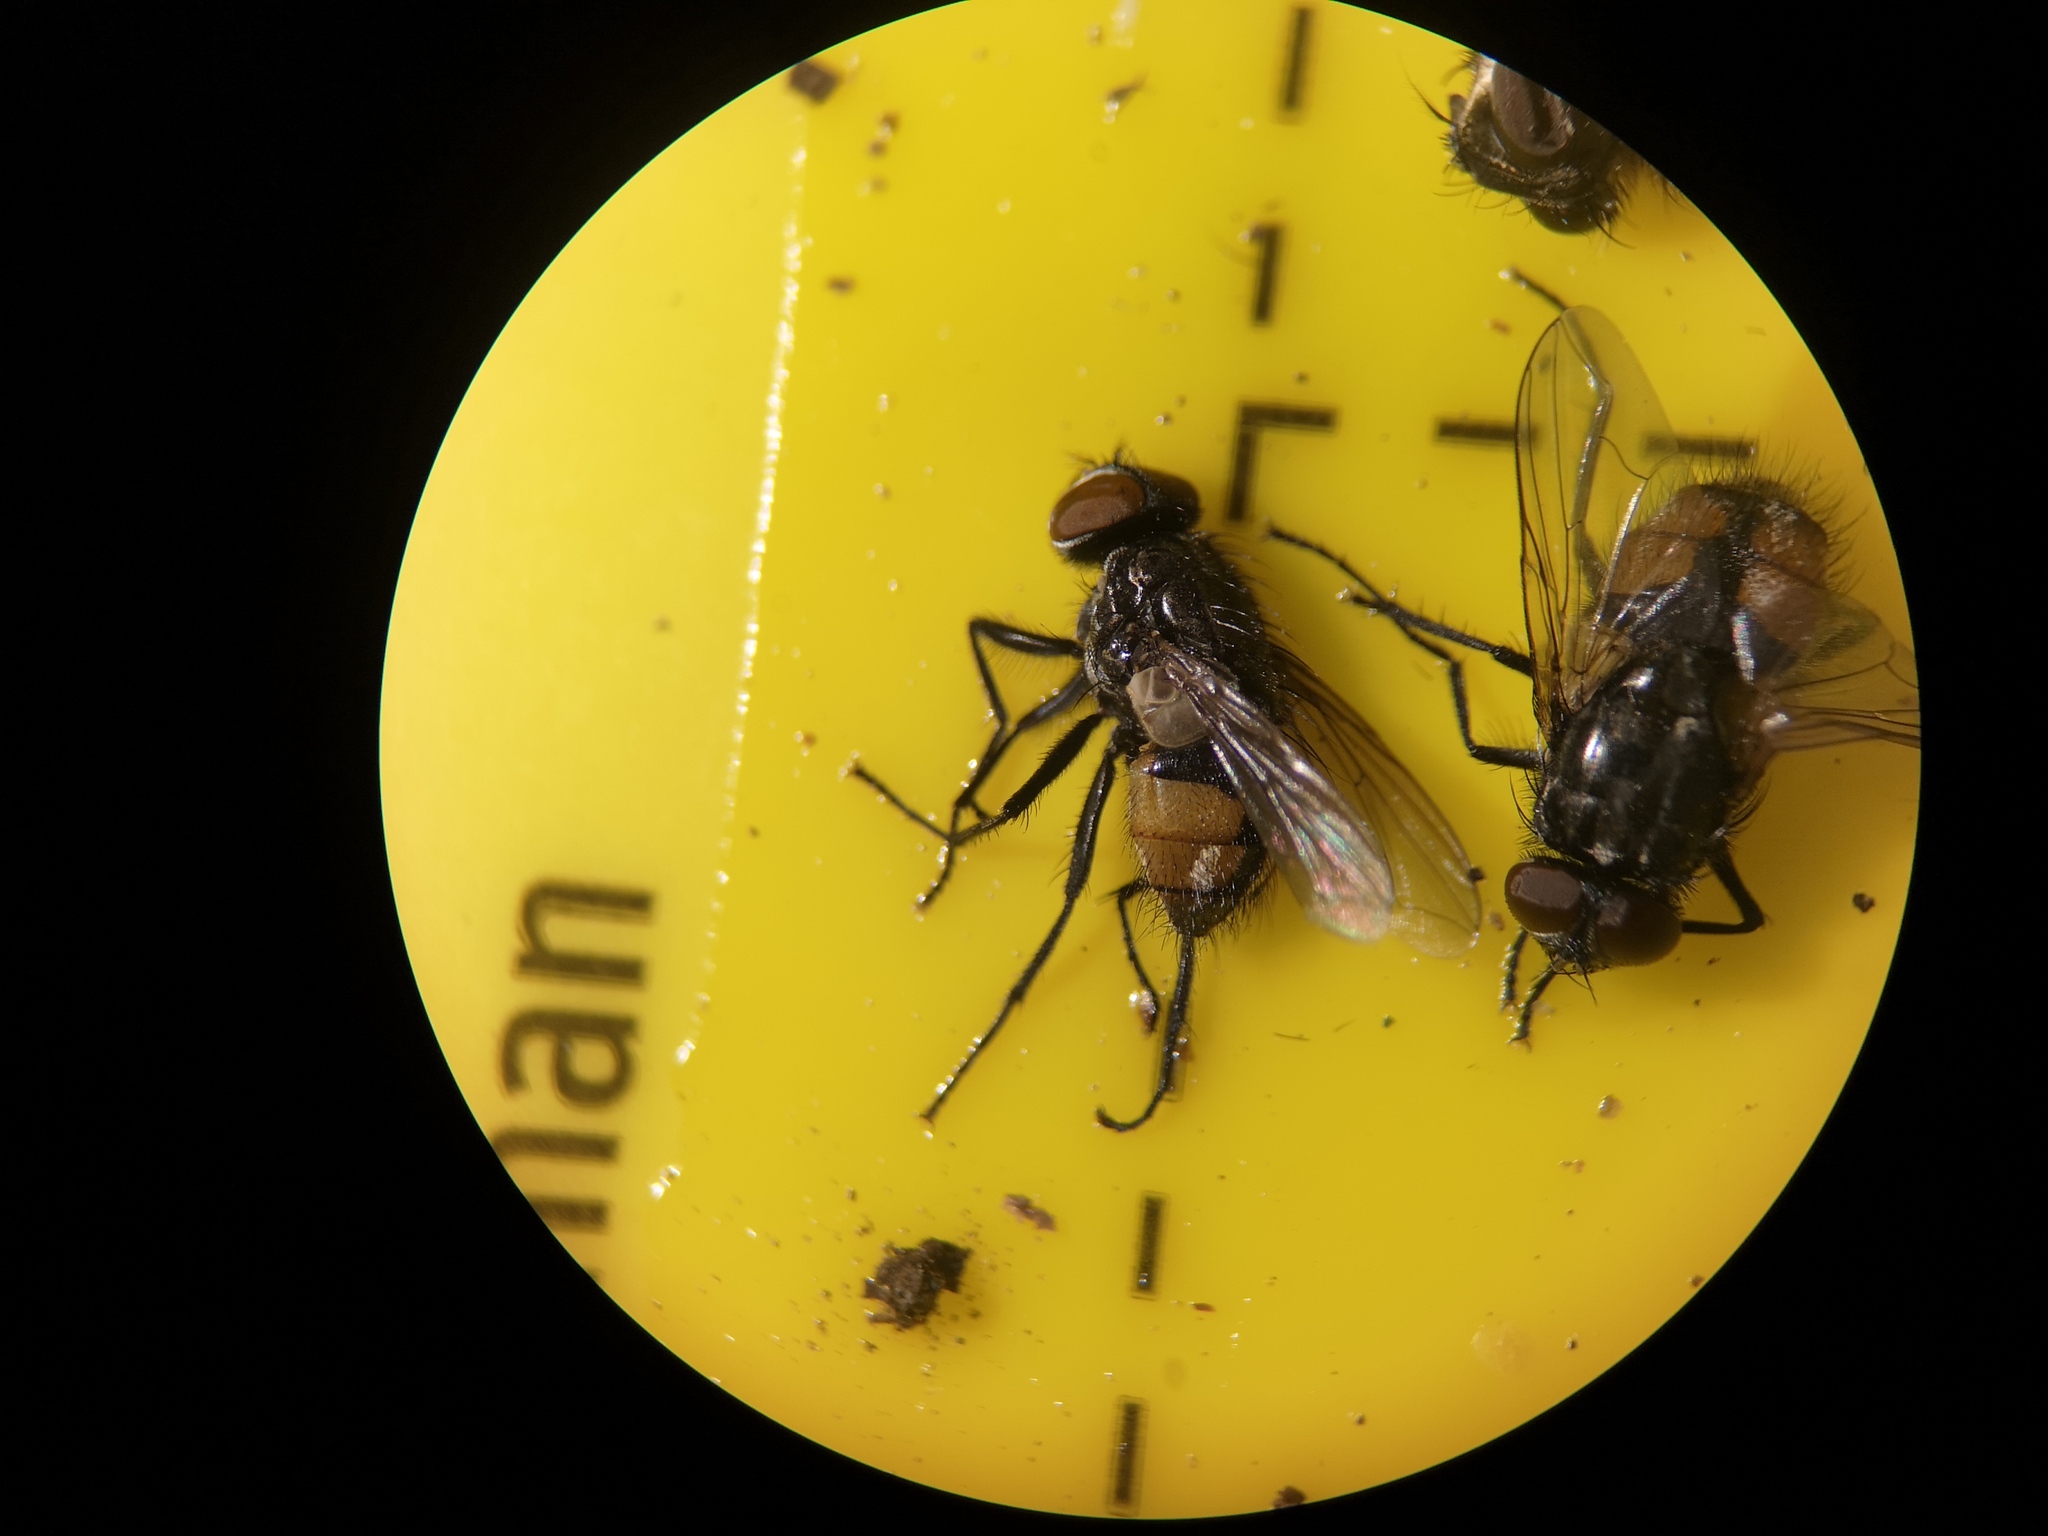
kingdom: Animalia
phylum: Arthropoda
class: Insecta
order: Diptera
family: Muscidae
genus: Musca
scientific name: Musca autumnalis
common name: Face fly
